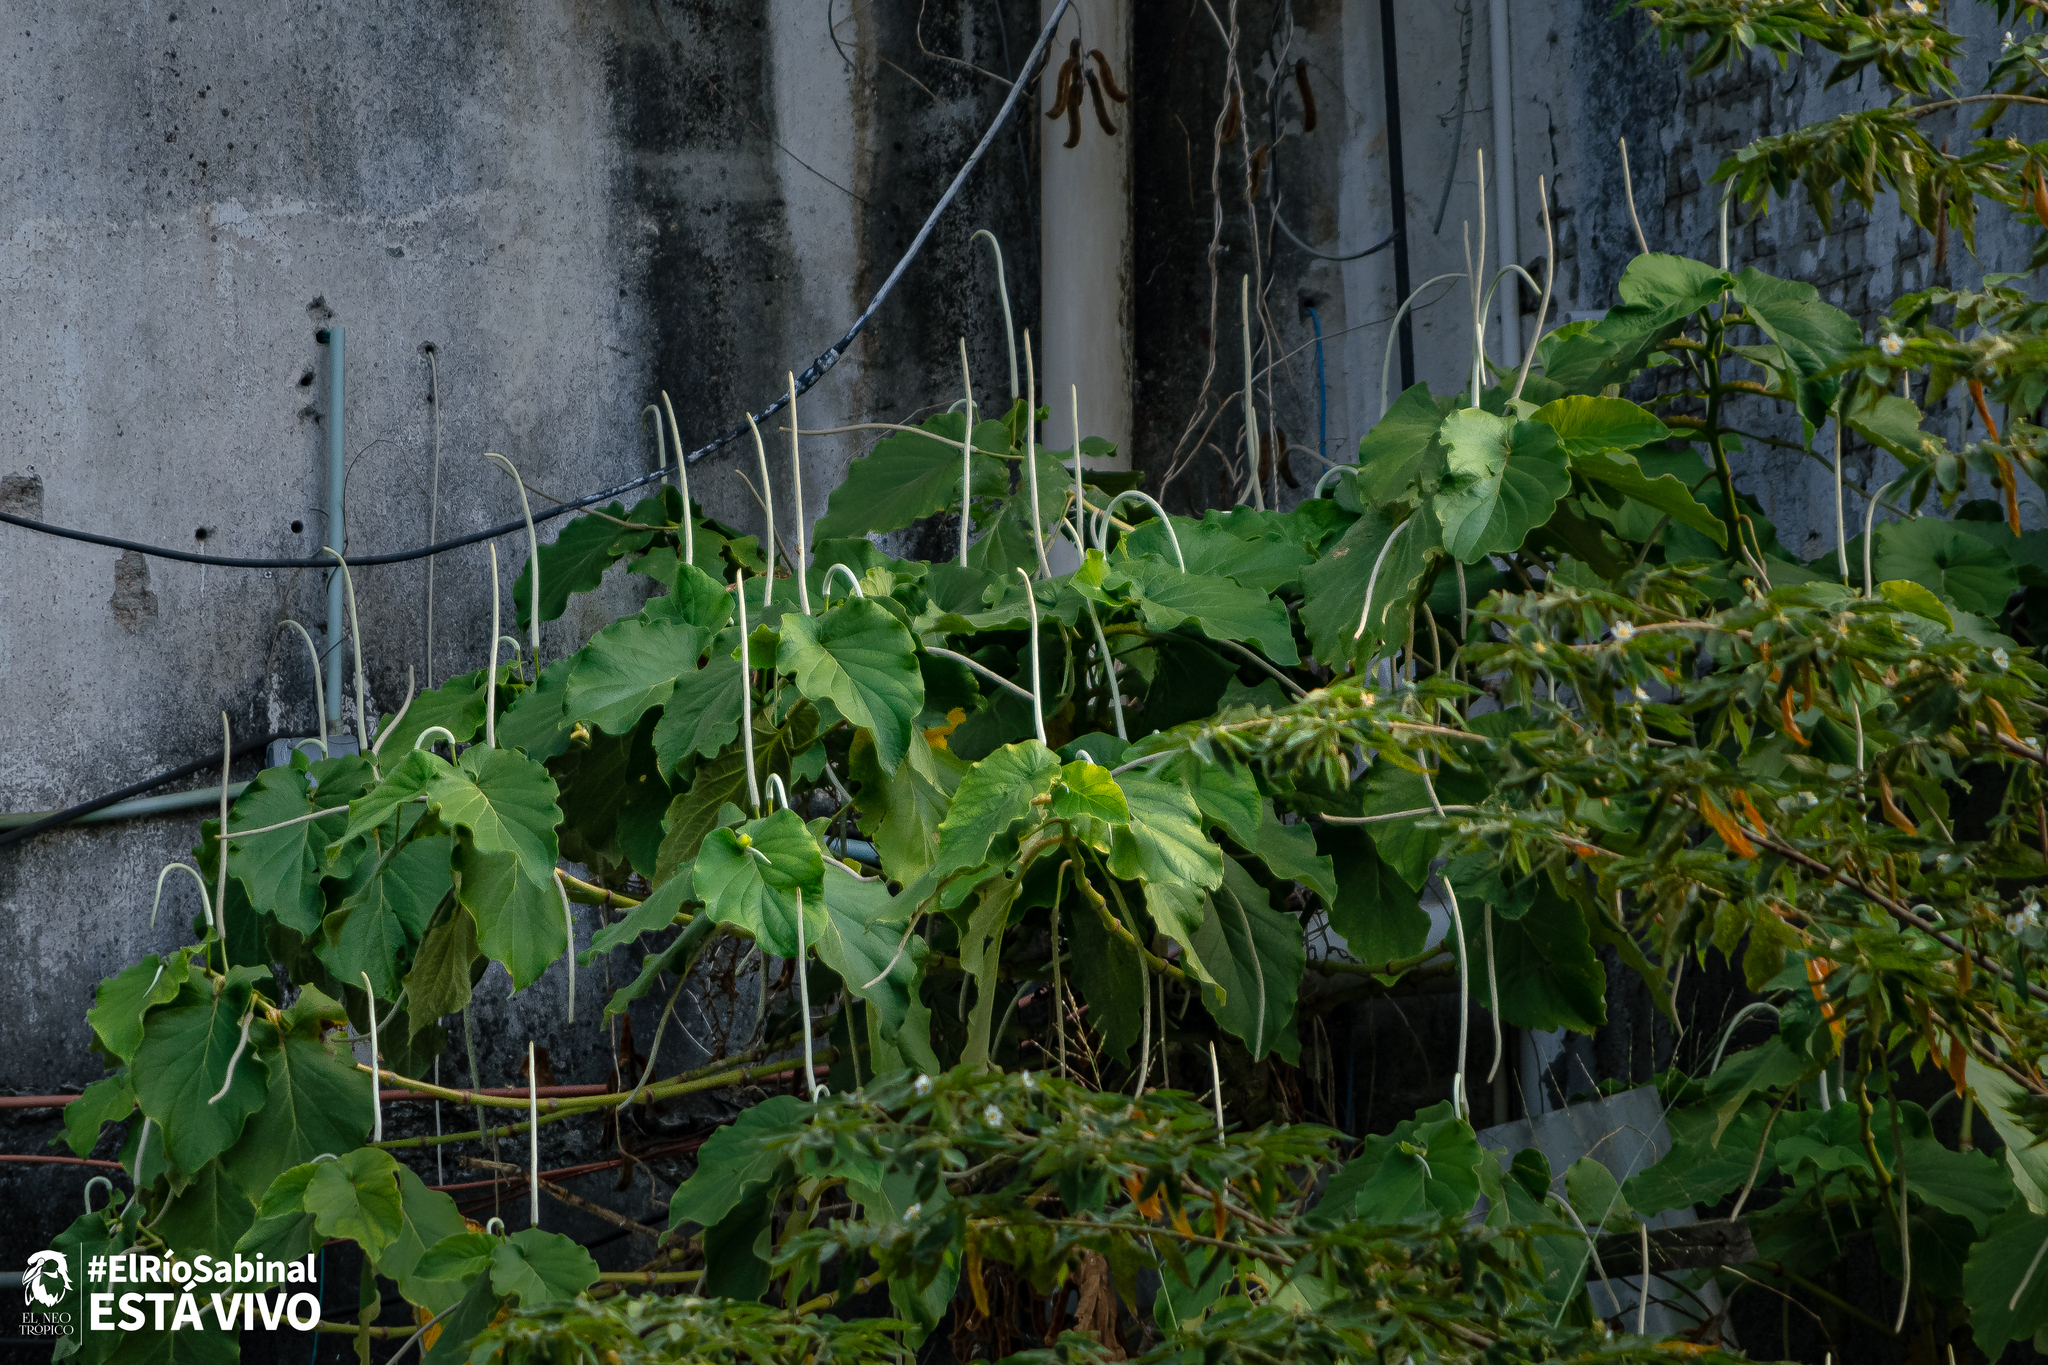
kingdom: Plantae
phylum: Tracheophyta
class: Magnoliopsida
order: Piperales
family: Piperaceae
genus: Piper
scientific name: Piper auritum
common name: Vera cruz pepper
